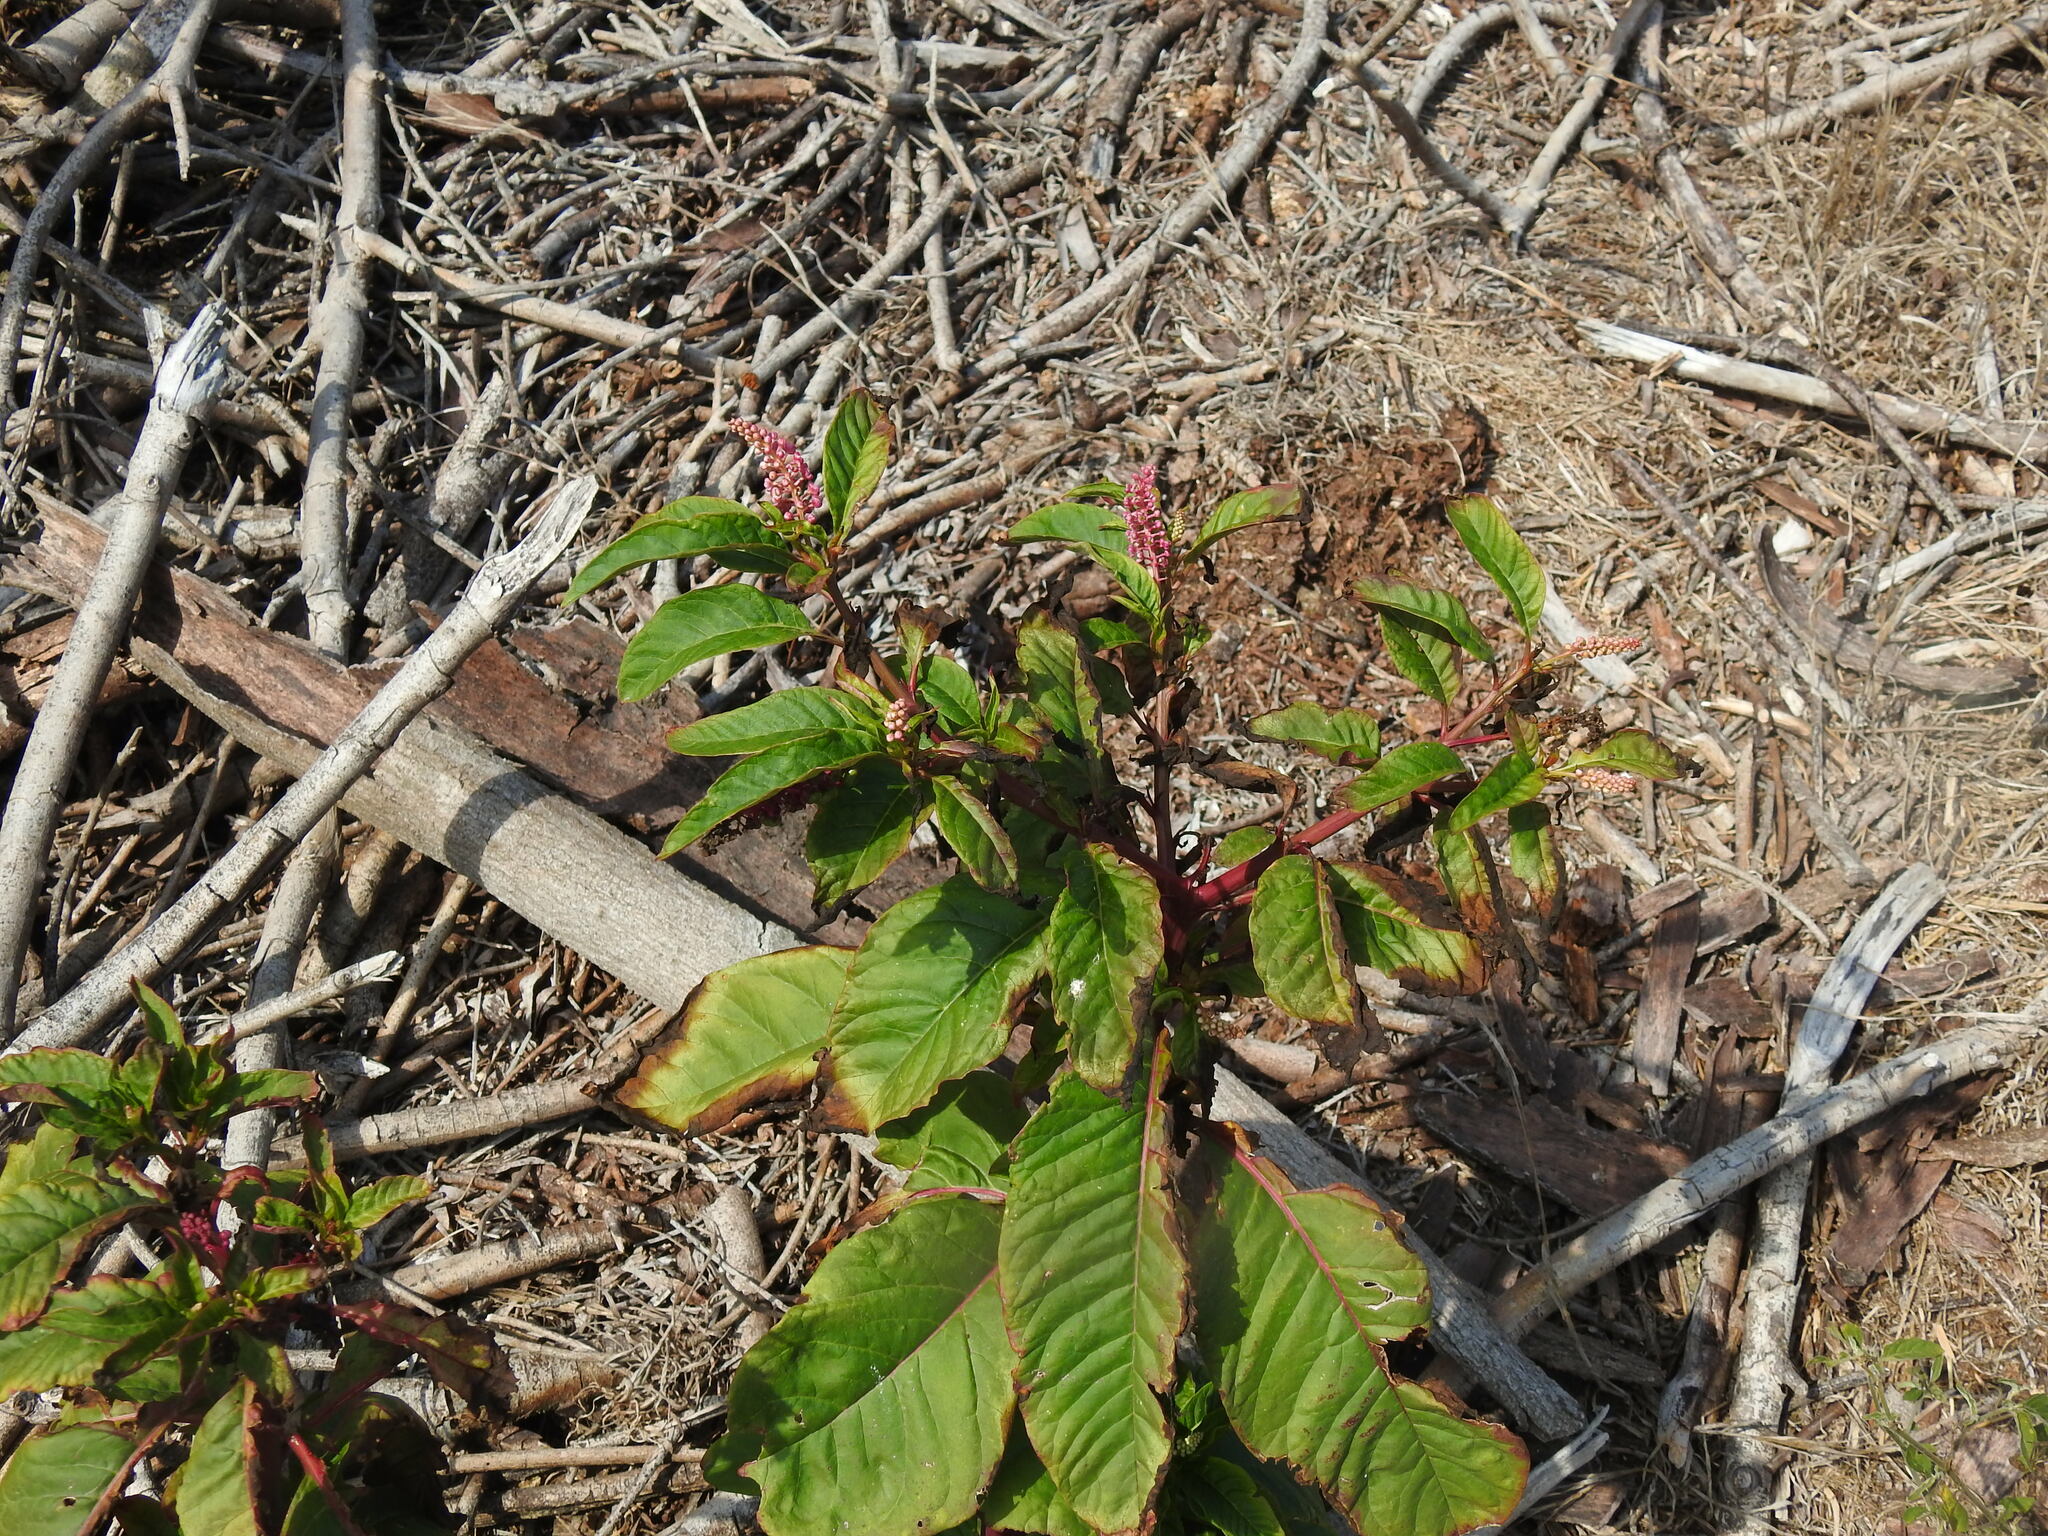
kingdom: Plantae
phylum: Tracheophyta
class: Magnoliopsida
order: Caryophyllales
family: Phytolaccaceae
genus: Phytolacca
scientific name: Phytolacca americana
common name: American pokeweed
